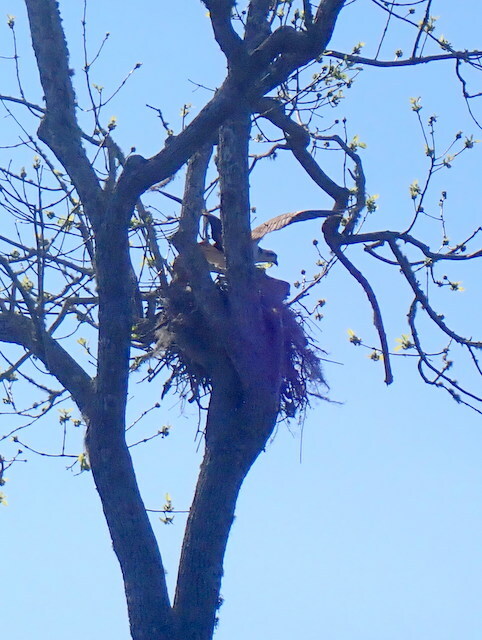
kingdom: Animalia
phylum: Chordata
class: Aves
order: Accipitriformes
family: Pandionidae
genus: Pandion
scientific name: Pandion haliaetus
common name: Osprey
